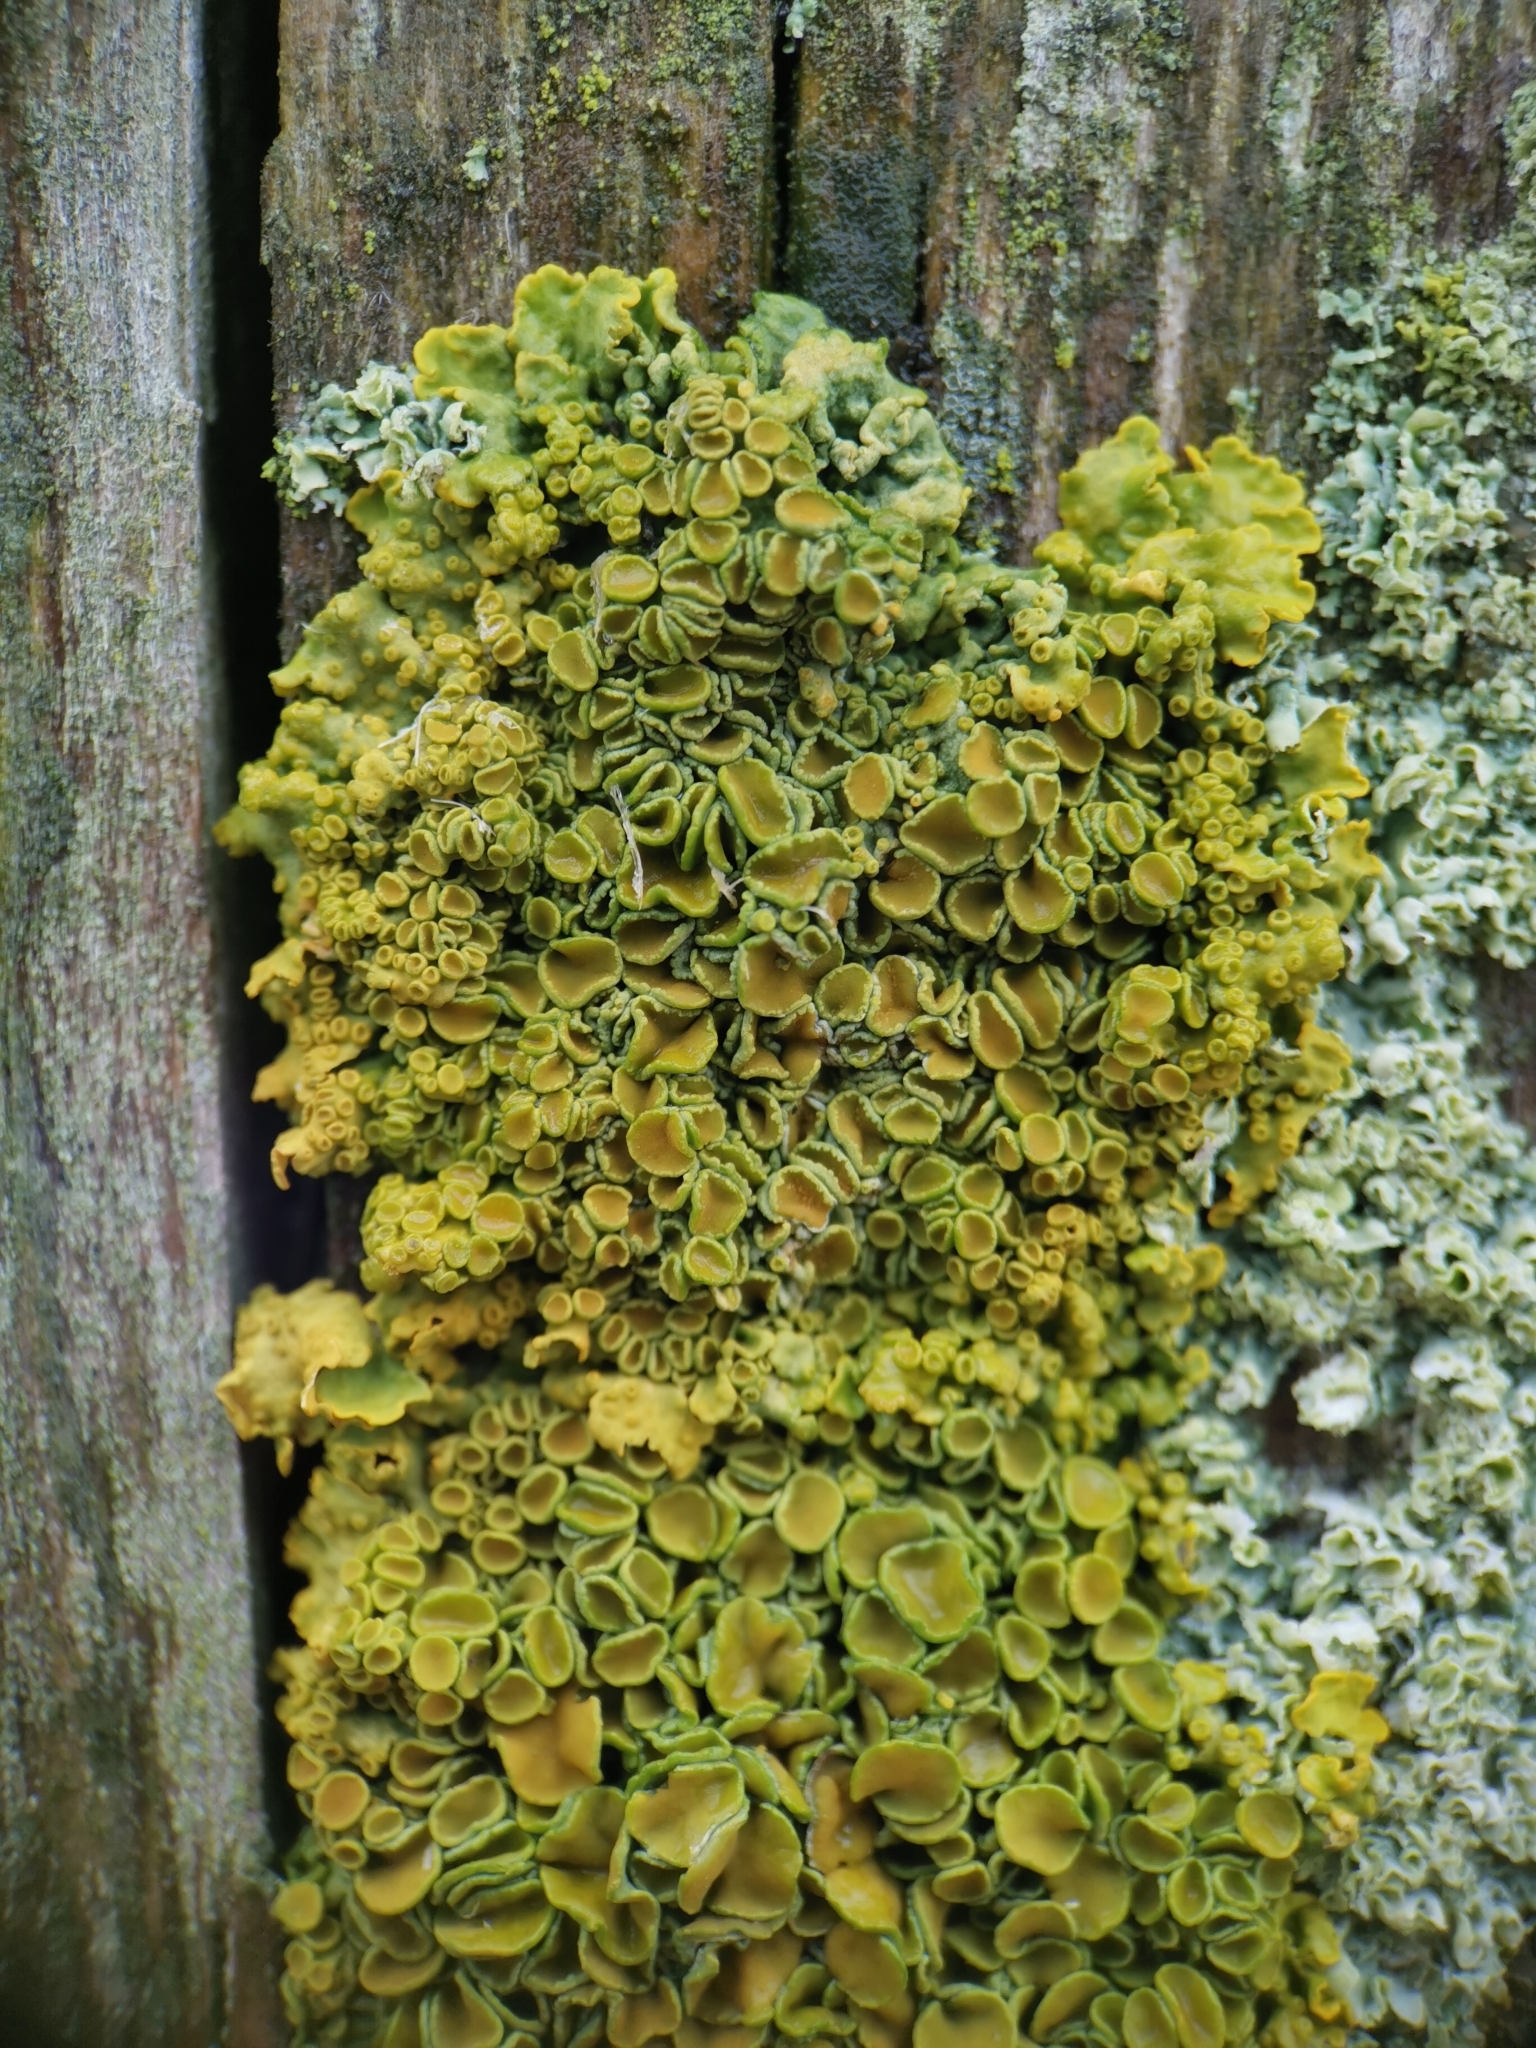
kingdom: Fungi
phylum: Ascomycota
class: Lecanoromycetes
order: Teloschistales
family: Teloschistaceae
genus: Xanthoria
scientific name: Xanthoria parietina
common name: Common orange lichen
